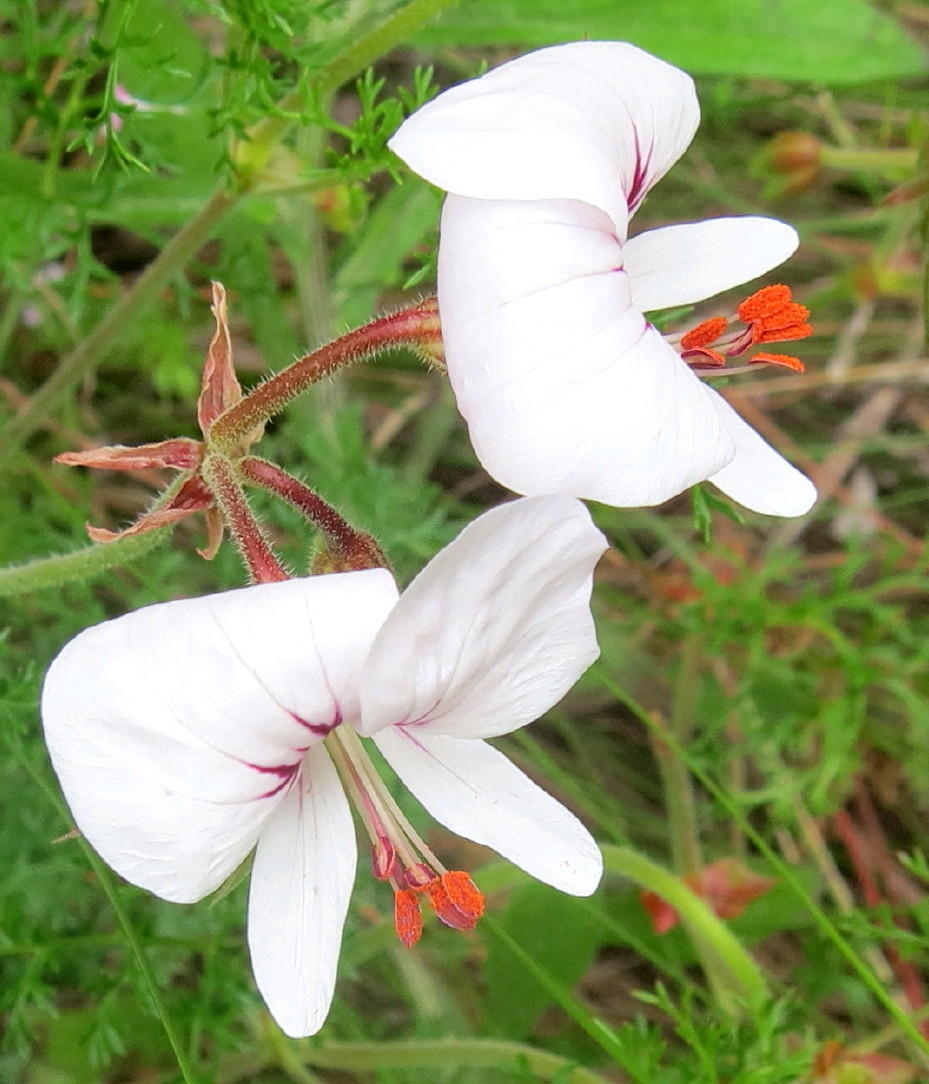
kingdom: Plantae
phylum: Tracheophyta
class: Magnoliopsida
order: Geraniales
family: Geraniaceae
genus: Pelargonium
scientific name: Pelargonium longicaule
